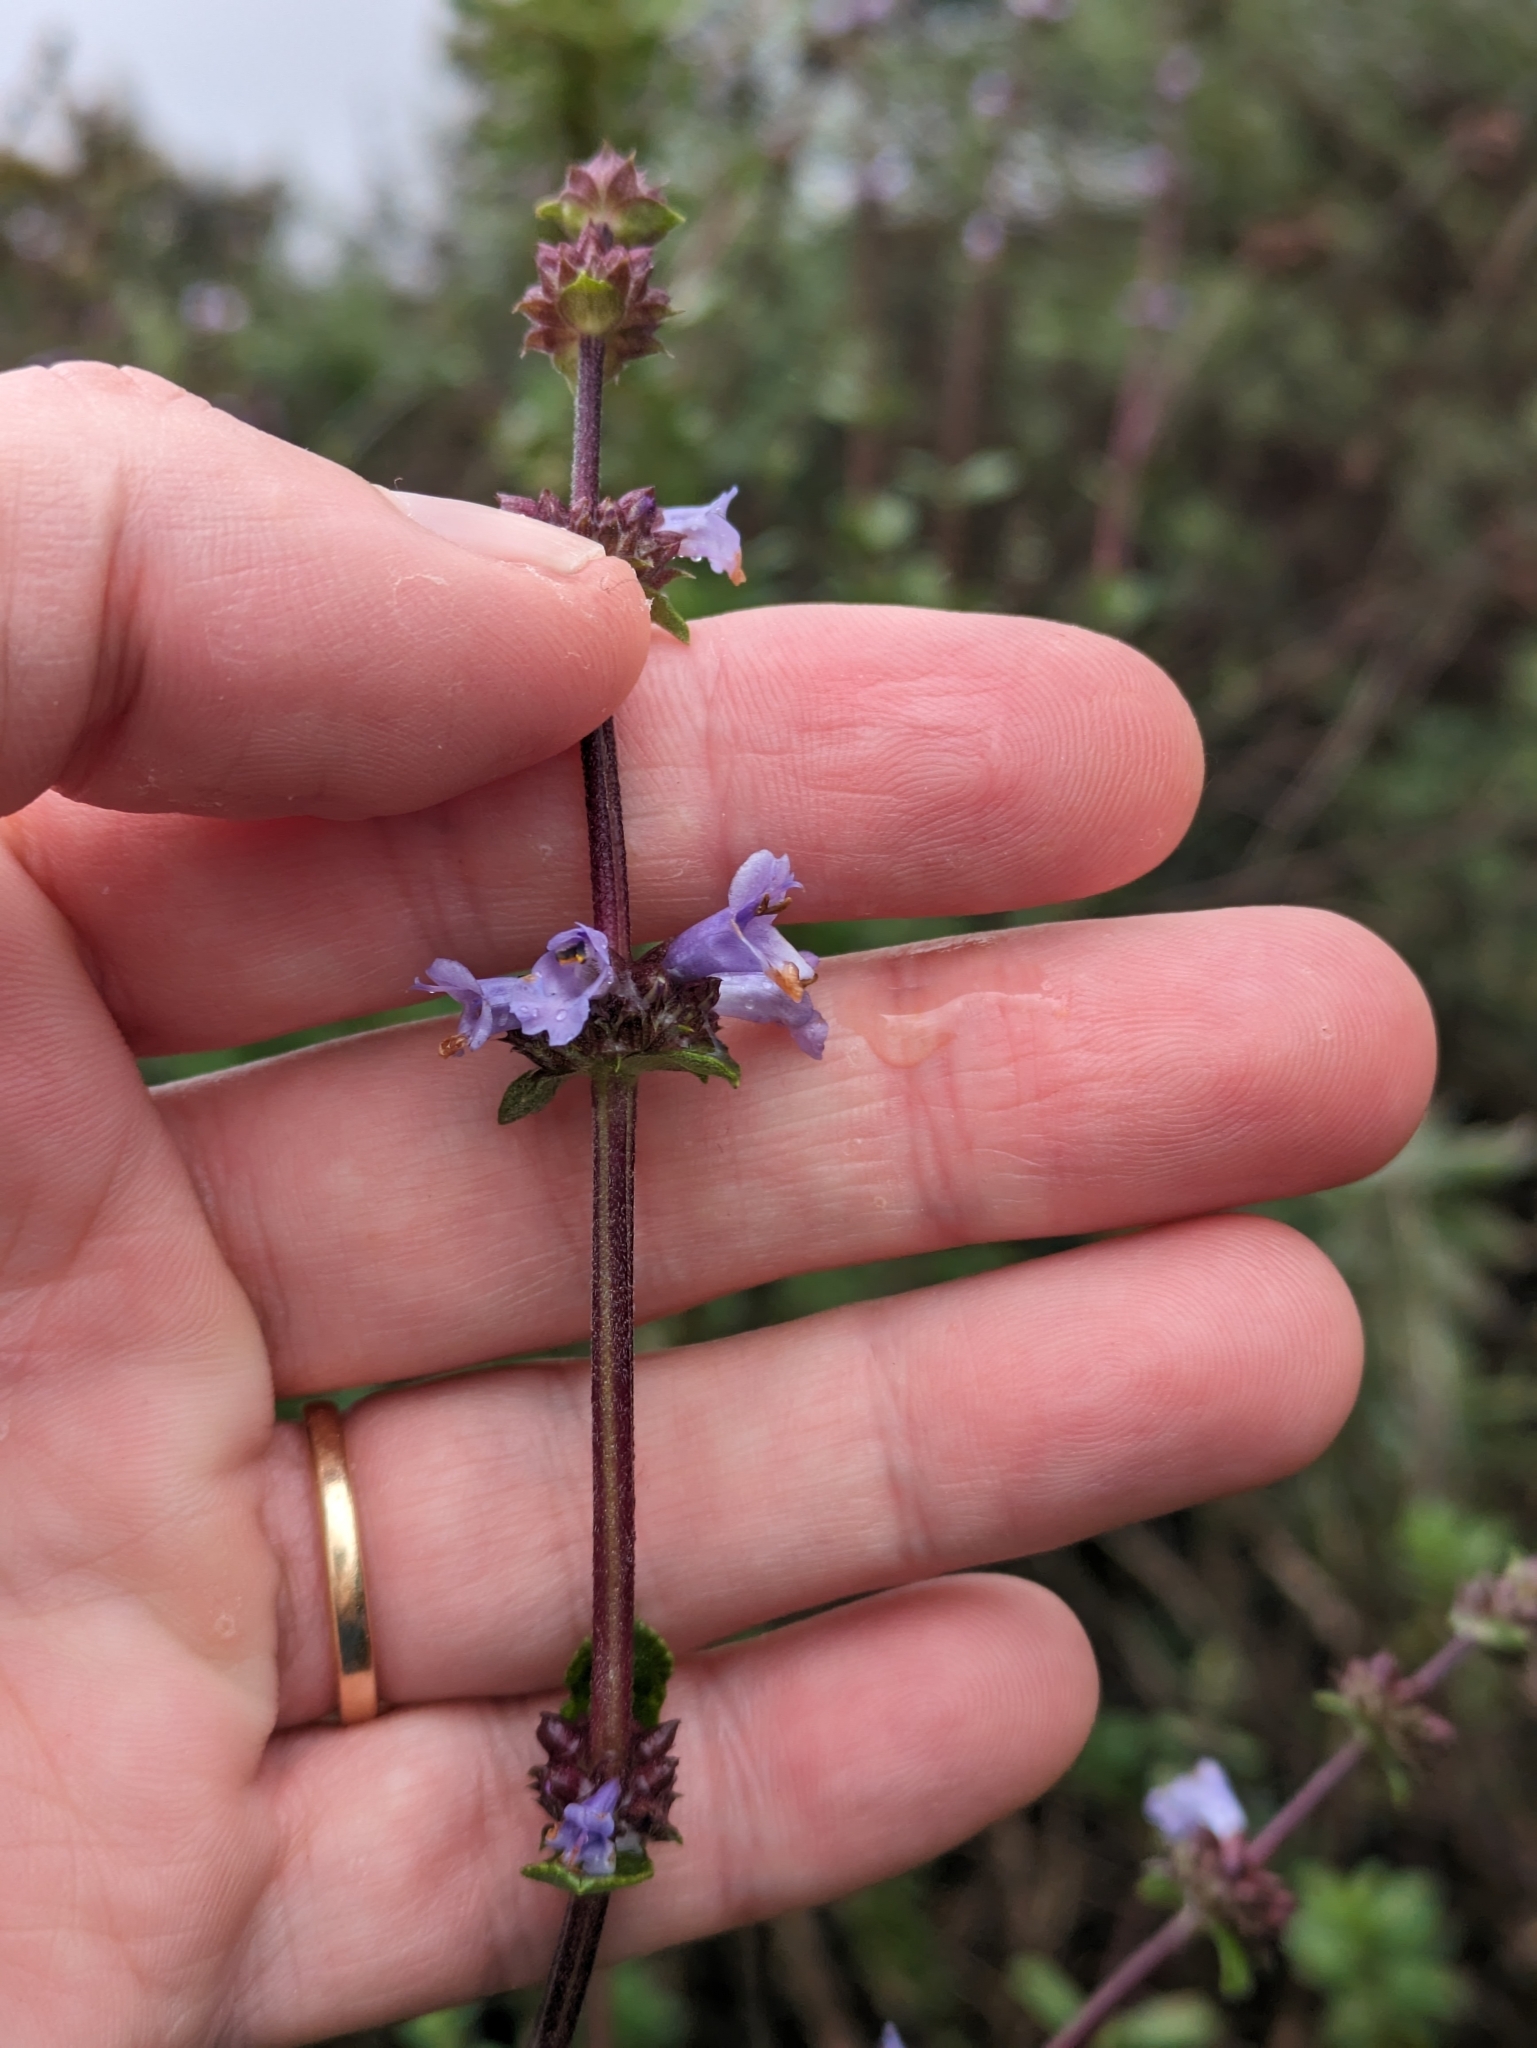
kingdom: Plantae
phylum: Tracheophyta
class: Magnoliopsida
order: Lamiales
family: Lamiaceae
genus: Salvia
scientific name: Salvia munzii
